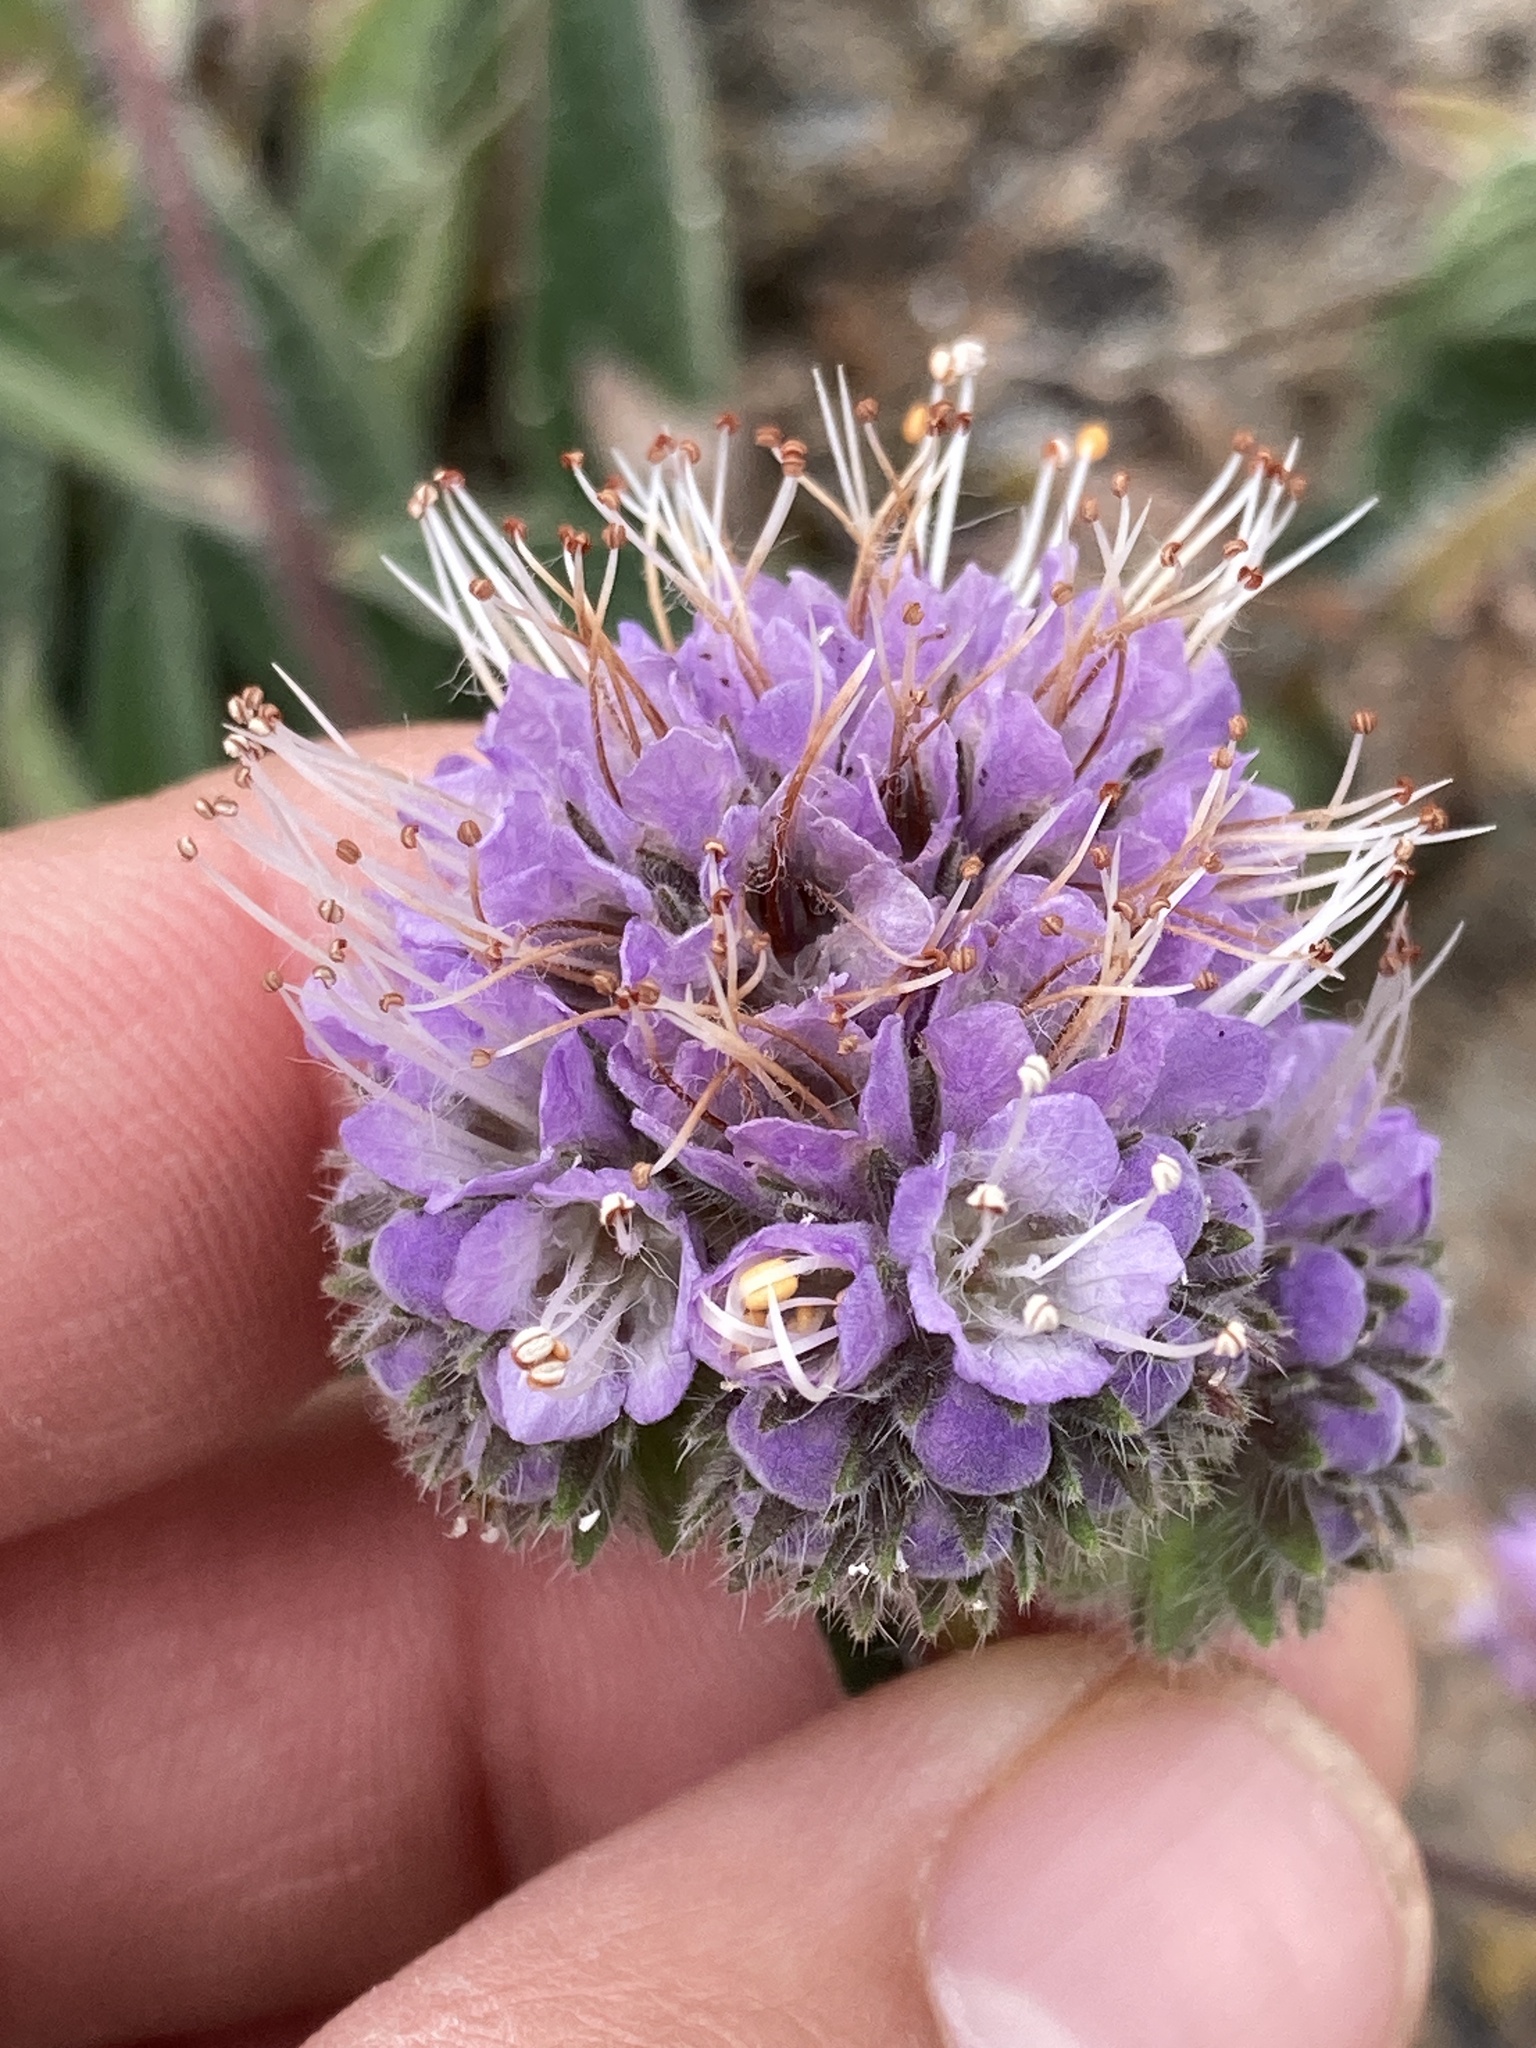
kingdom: Plantae
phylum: Tracheophyta
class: Magnoliopsida
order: Boraginales
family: Hydrophyllaceae
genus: Phacelia
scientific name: Phacelia californica
